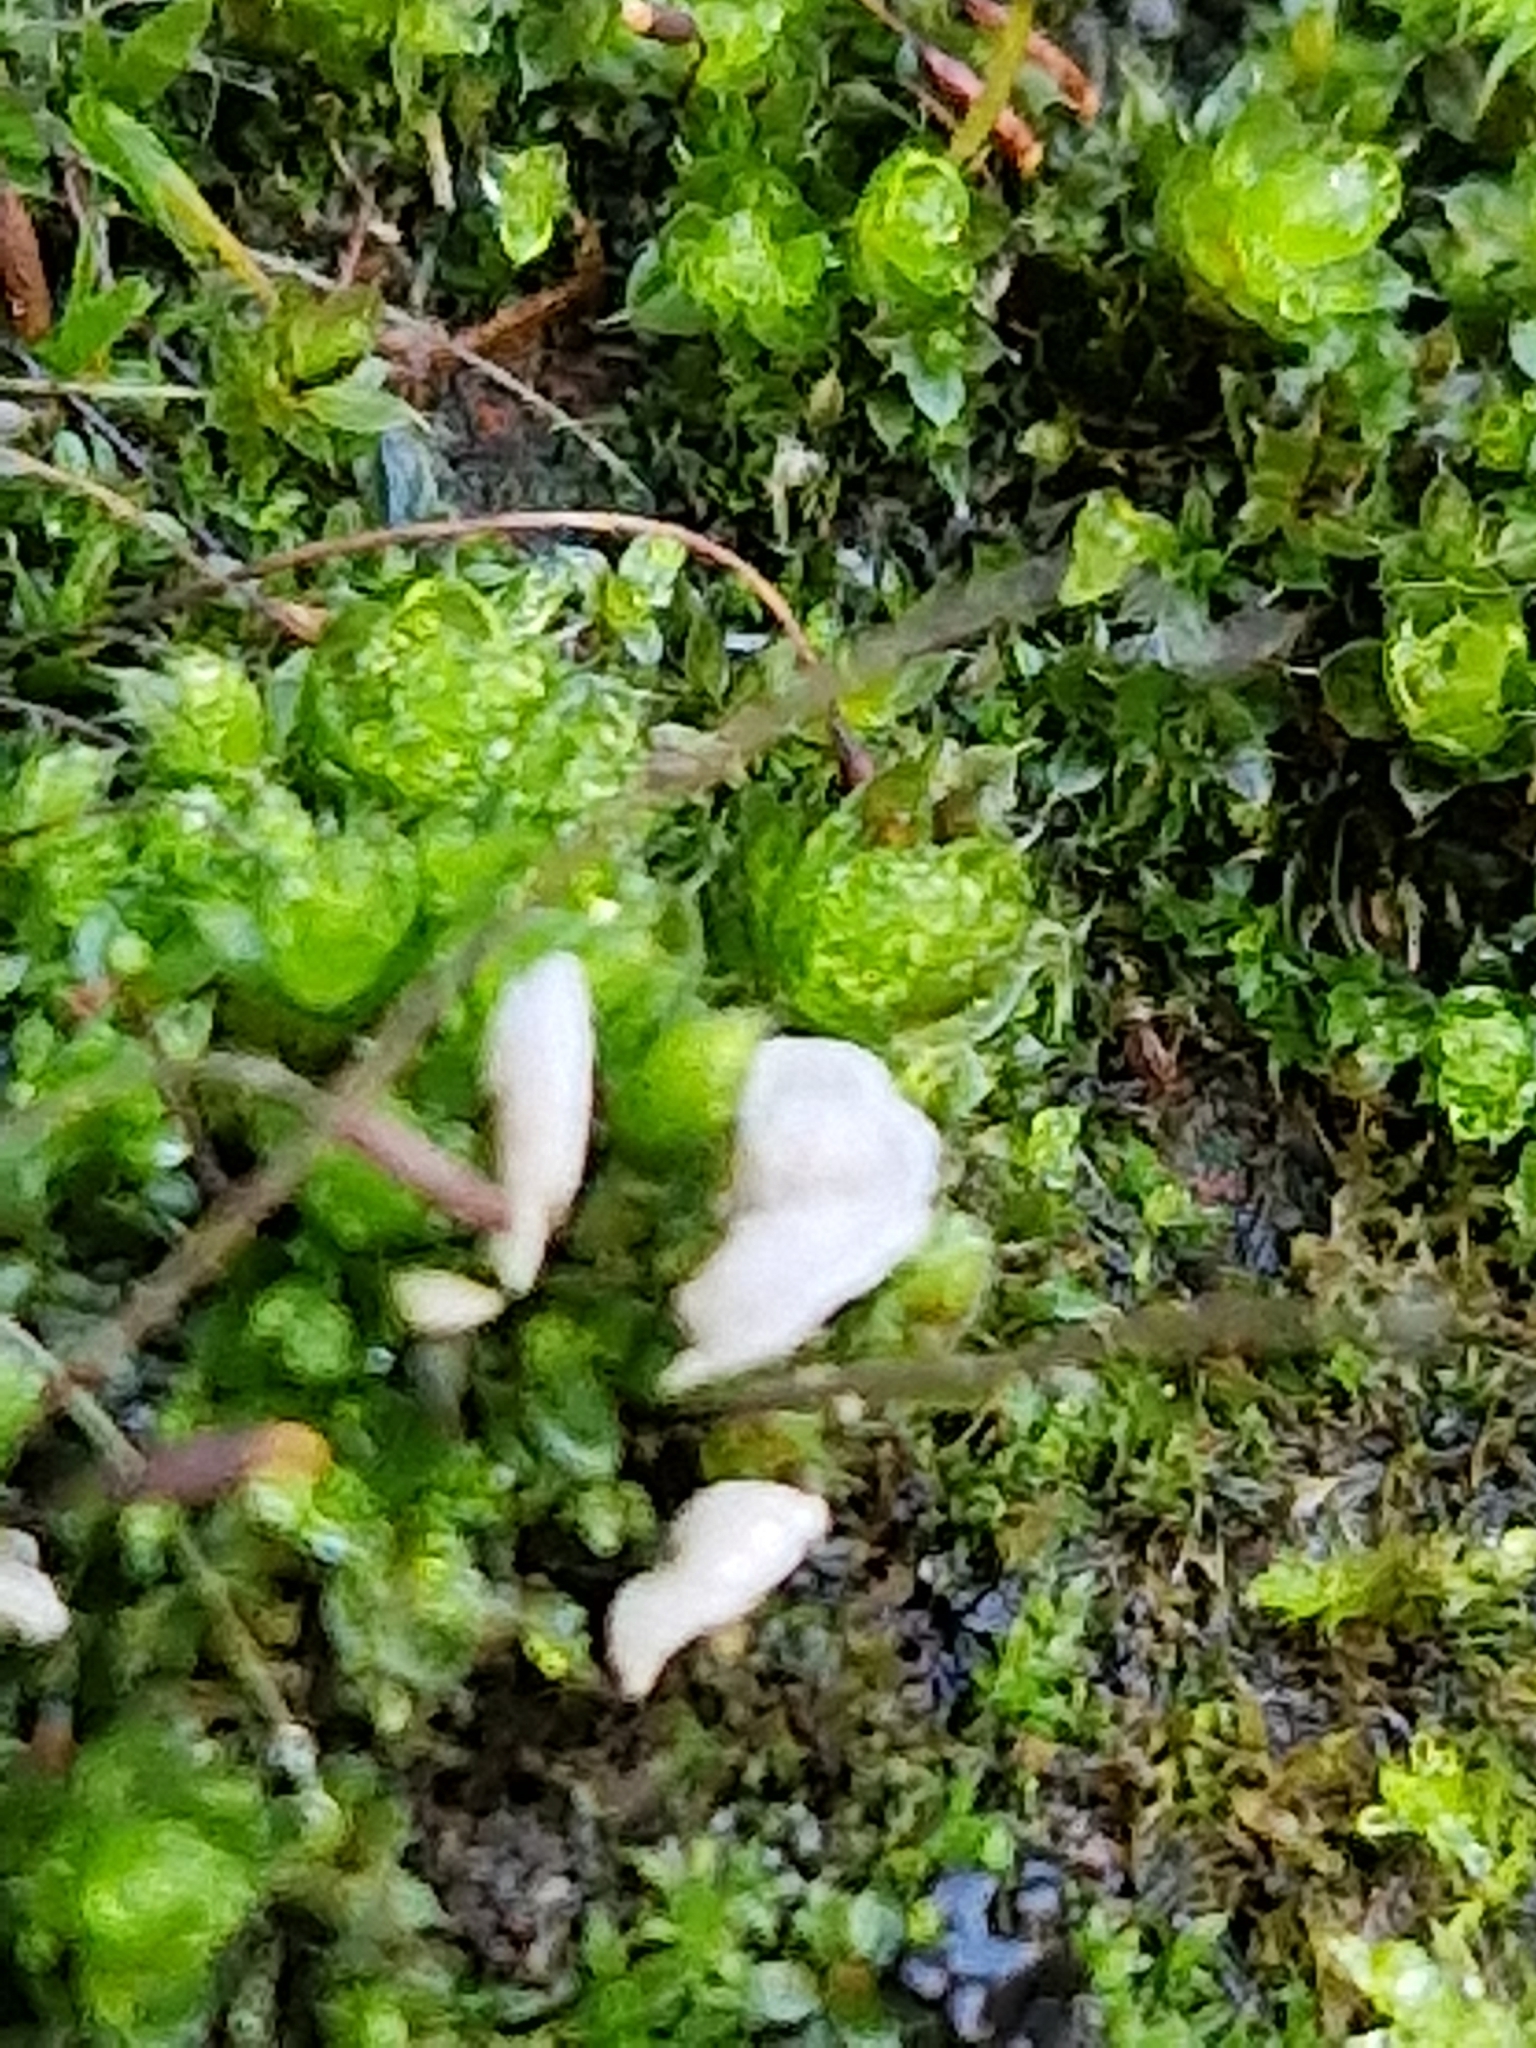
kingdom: Fungi
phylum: Basidiomycota
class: Agaricomycetes
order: Agaricales
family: Hygrophoraceae
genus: Arrhenia
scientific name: Arrhenia retiruga
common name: Small moss oysterling
